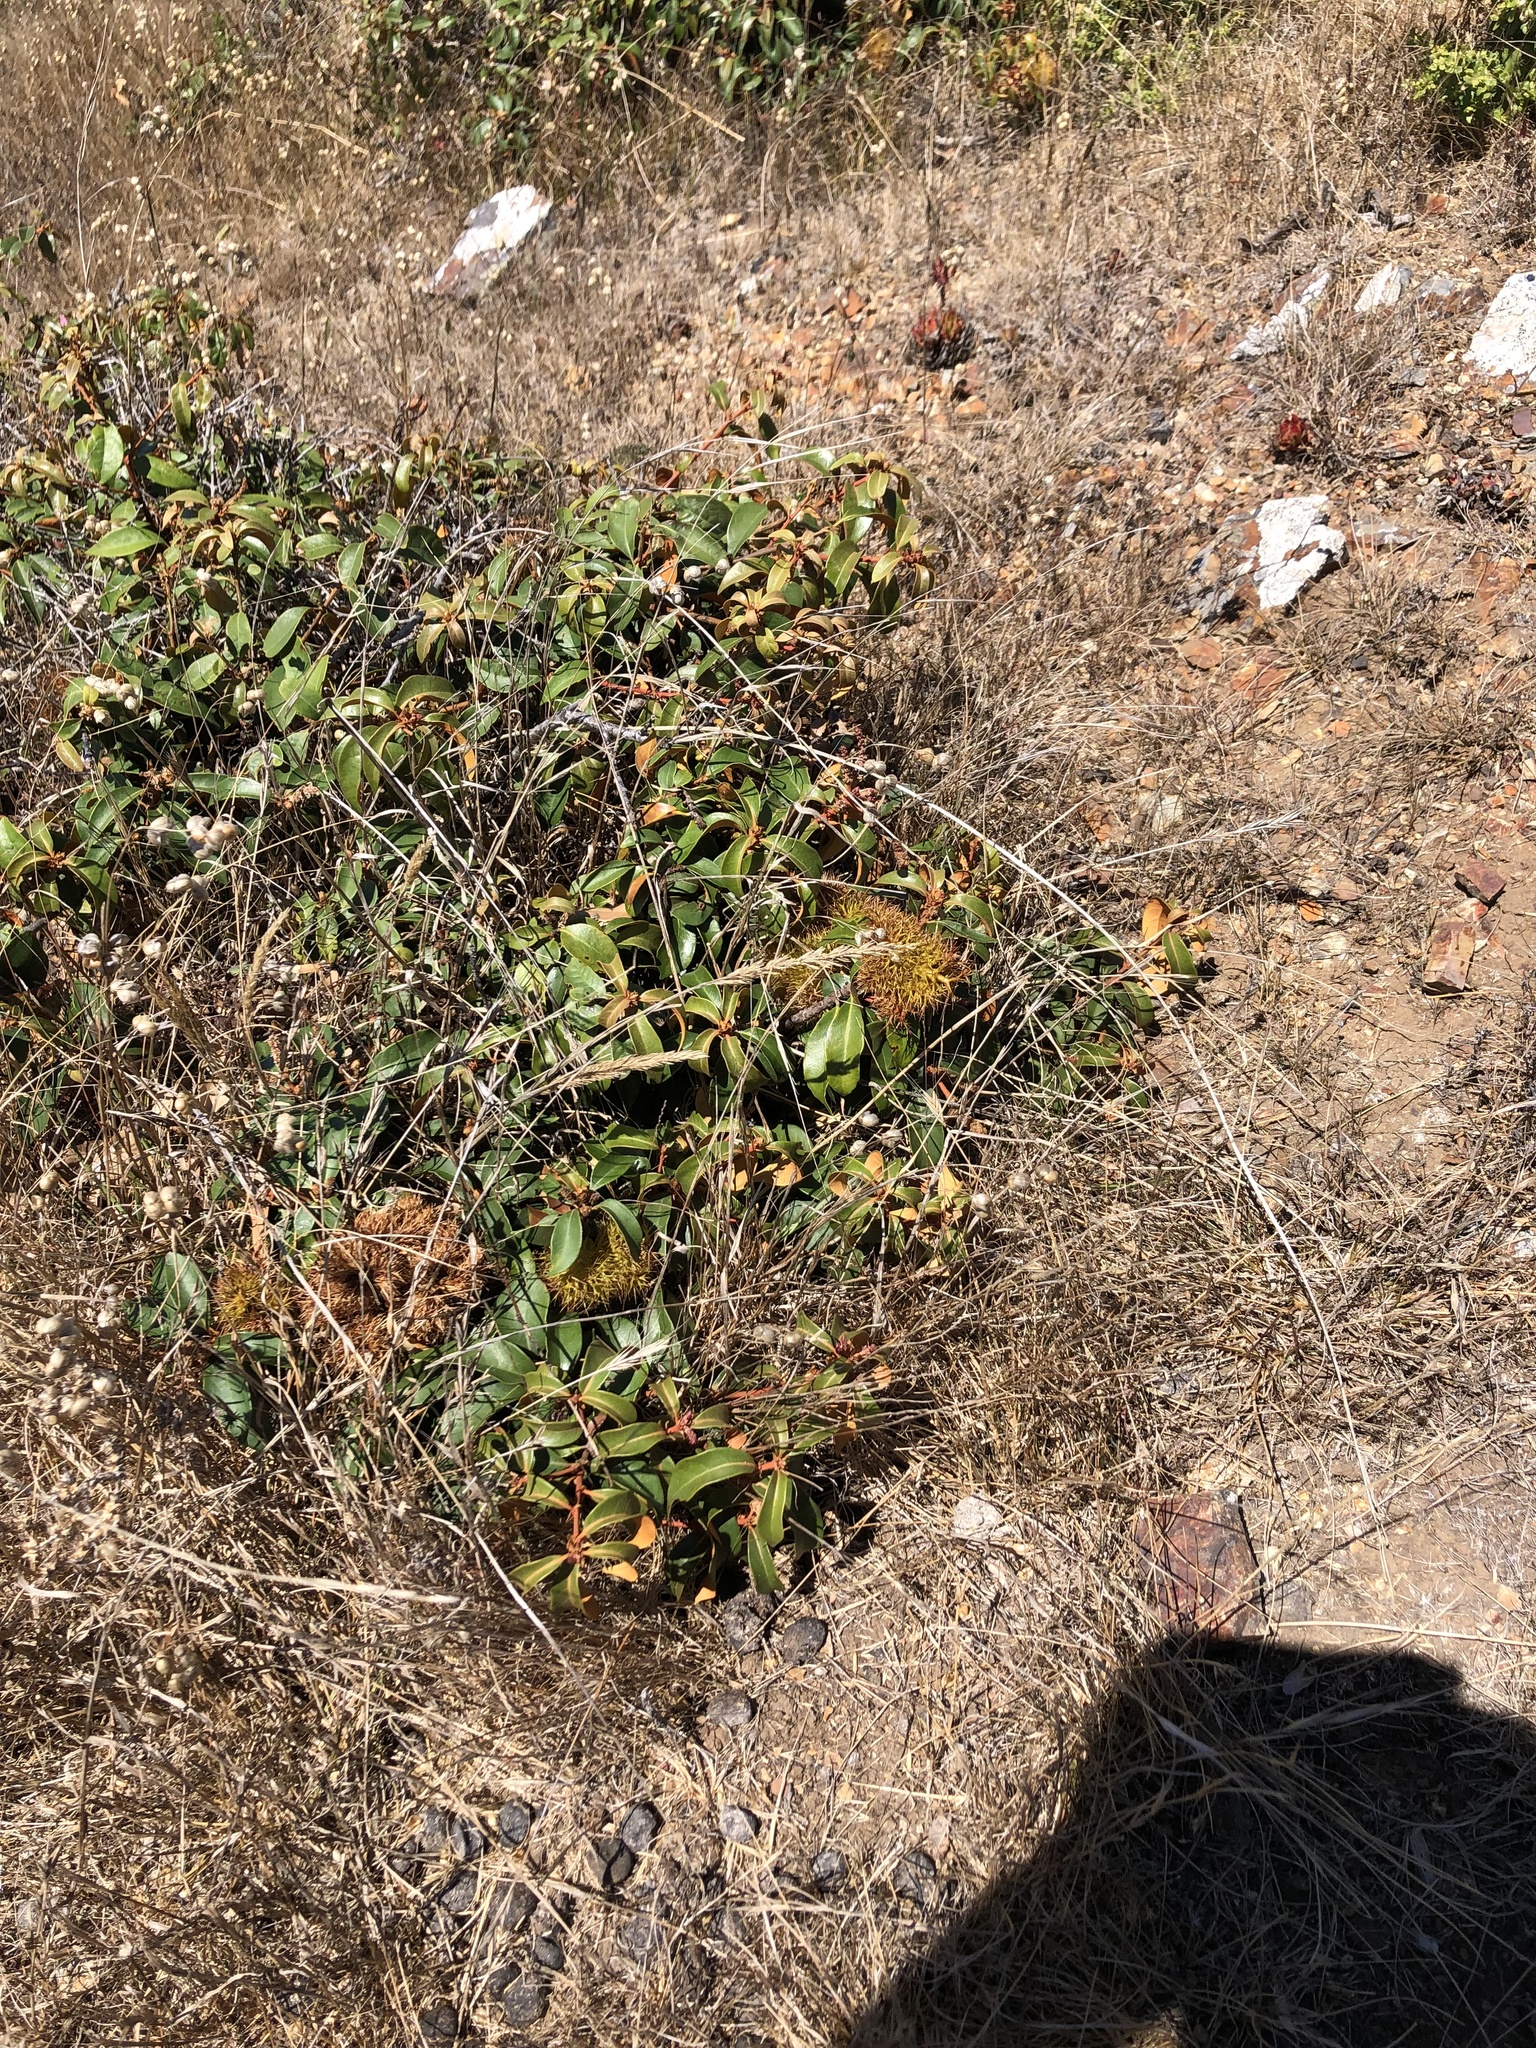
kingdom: Plantae
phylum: Tracheophyta
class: Magnoliopsida
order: Fagales
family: Fagaceae
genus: Chrysolepis
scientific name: Chrysolepis chrysophylla
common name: Giant chinquapin
